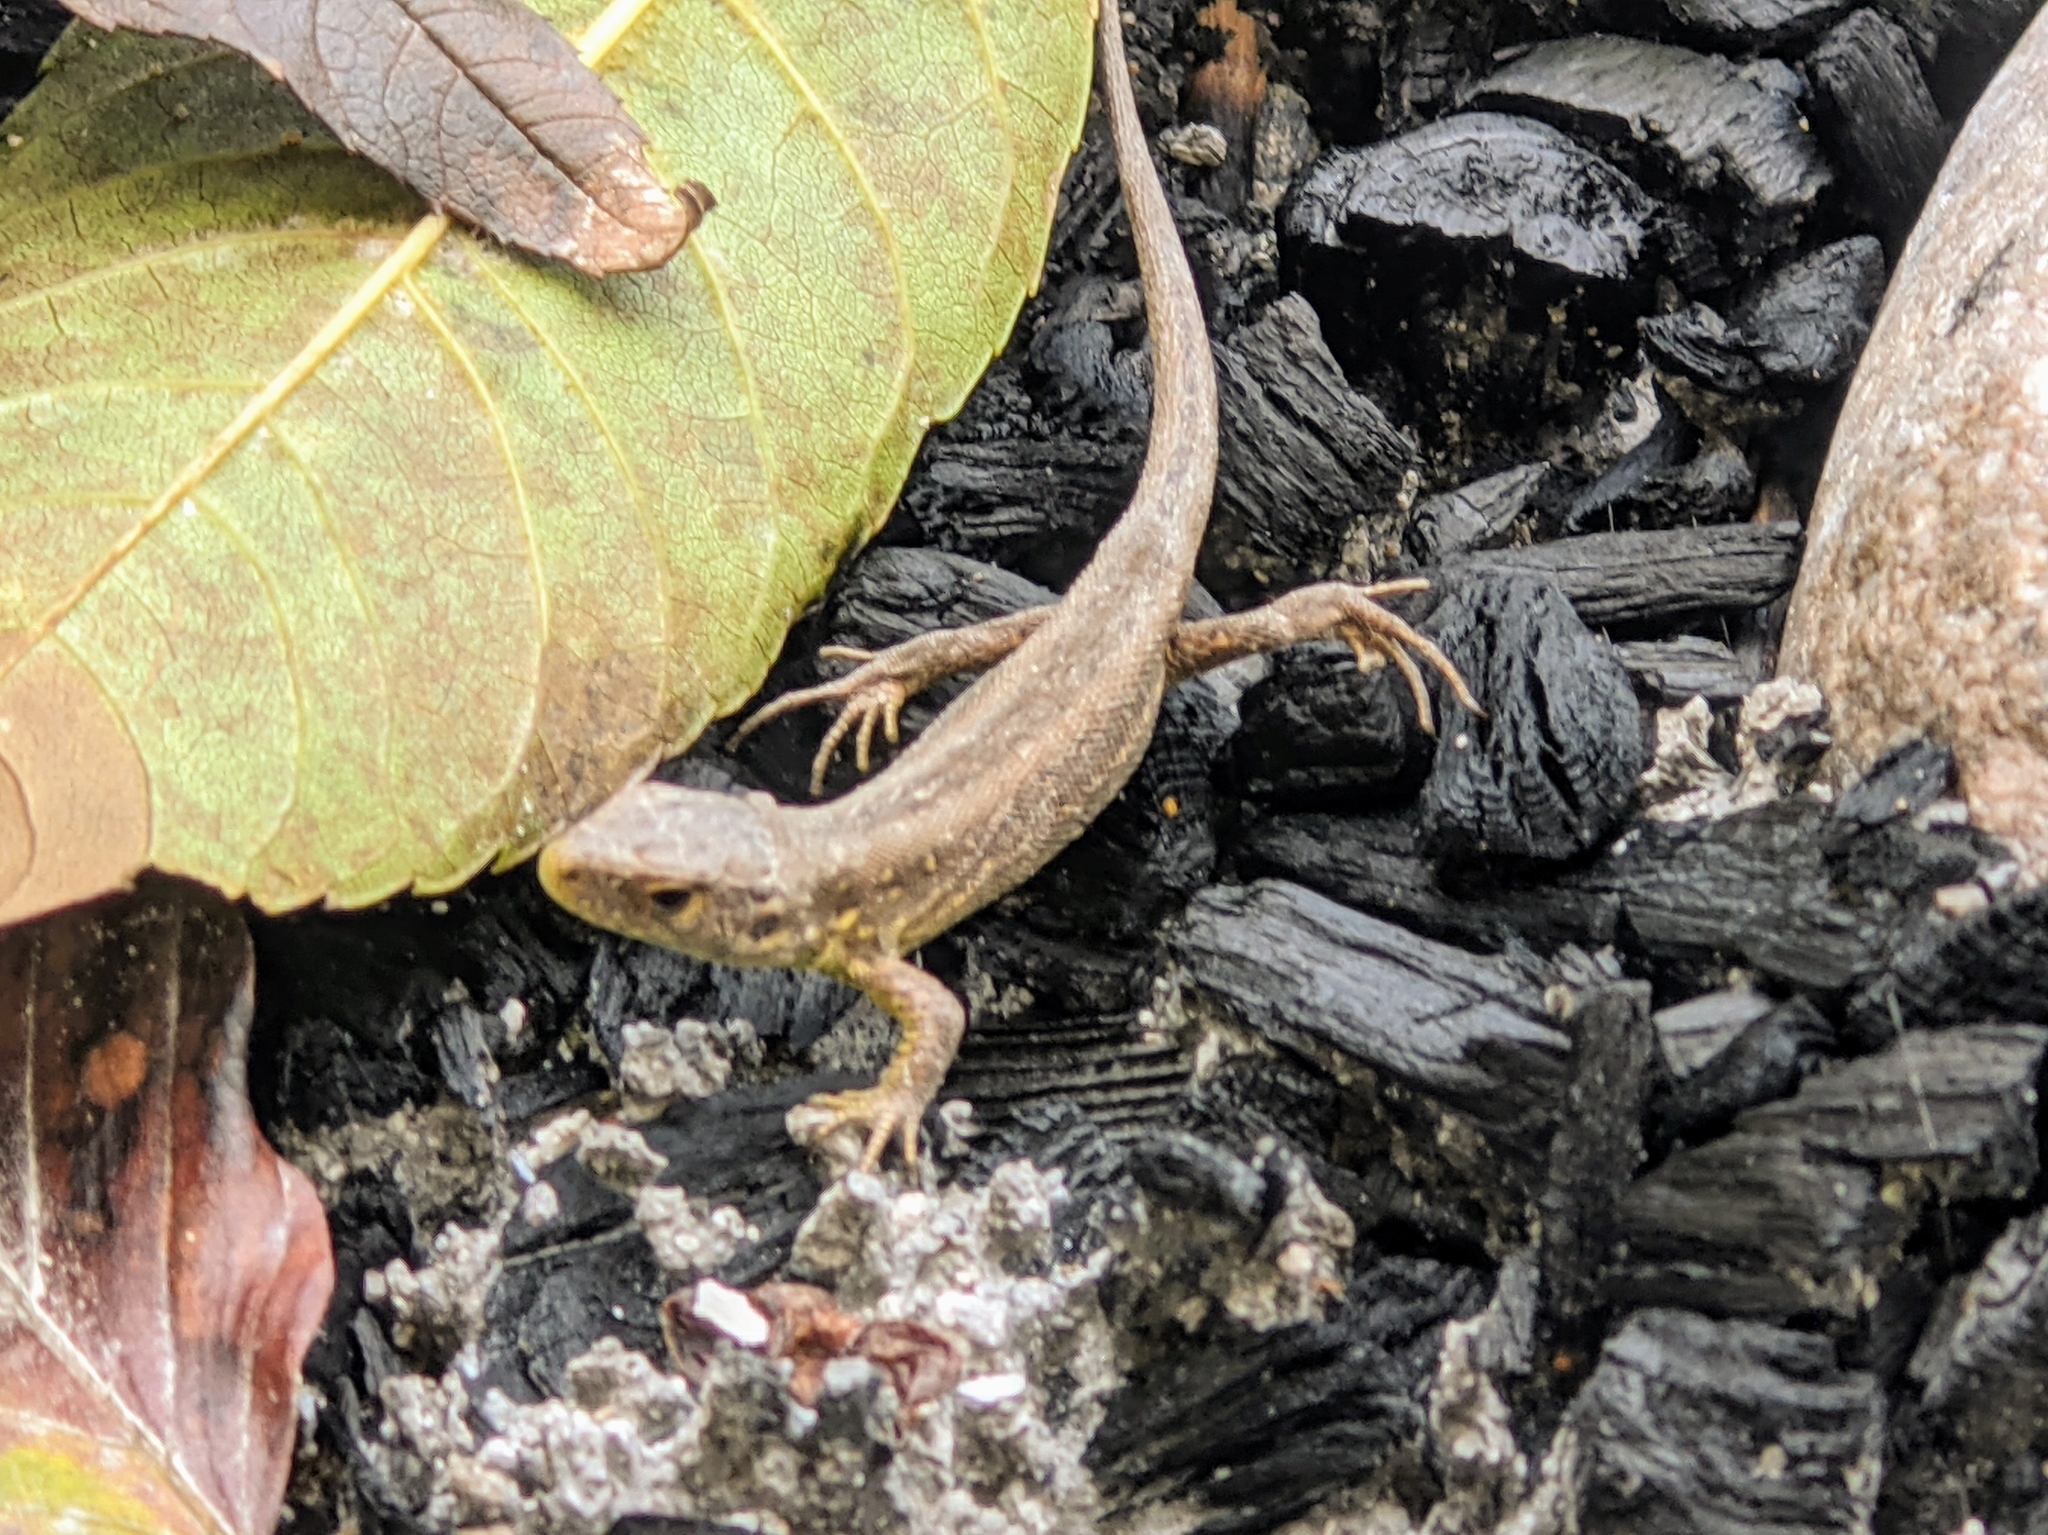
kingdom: Animalia
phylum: Chordata
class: Squamata
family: Lacertidae
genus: Lacerta
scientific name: Lacerta agilis
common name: Sand lizard
